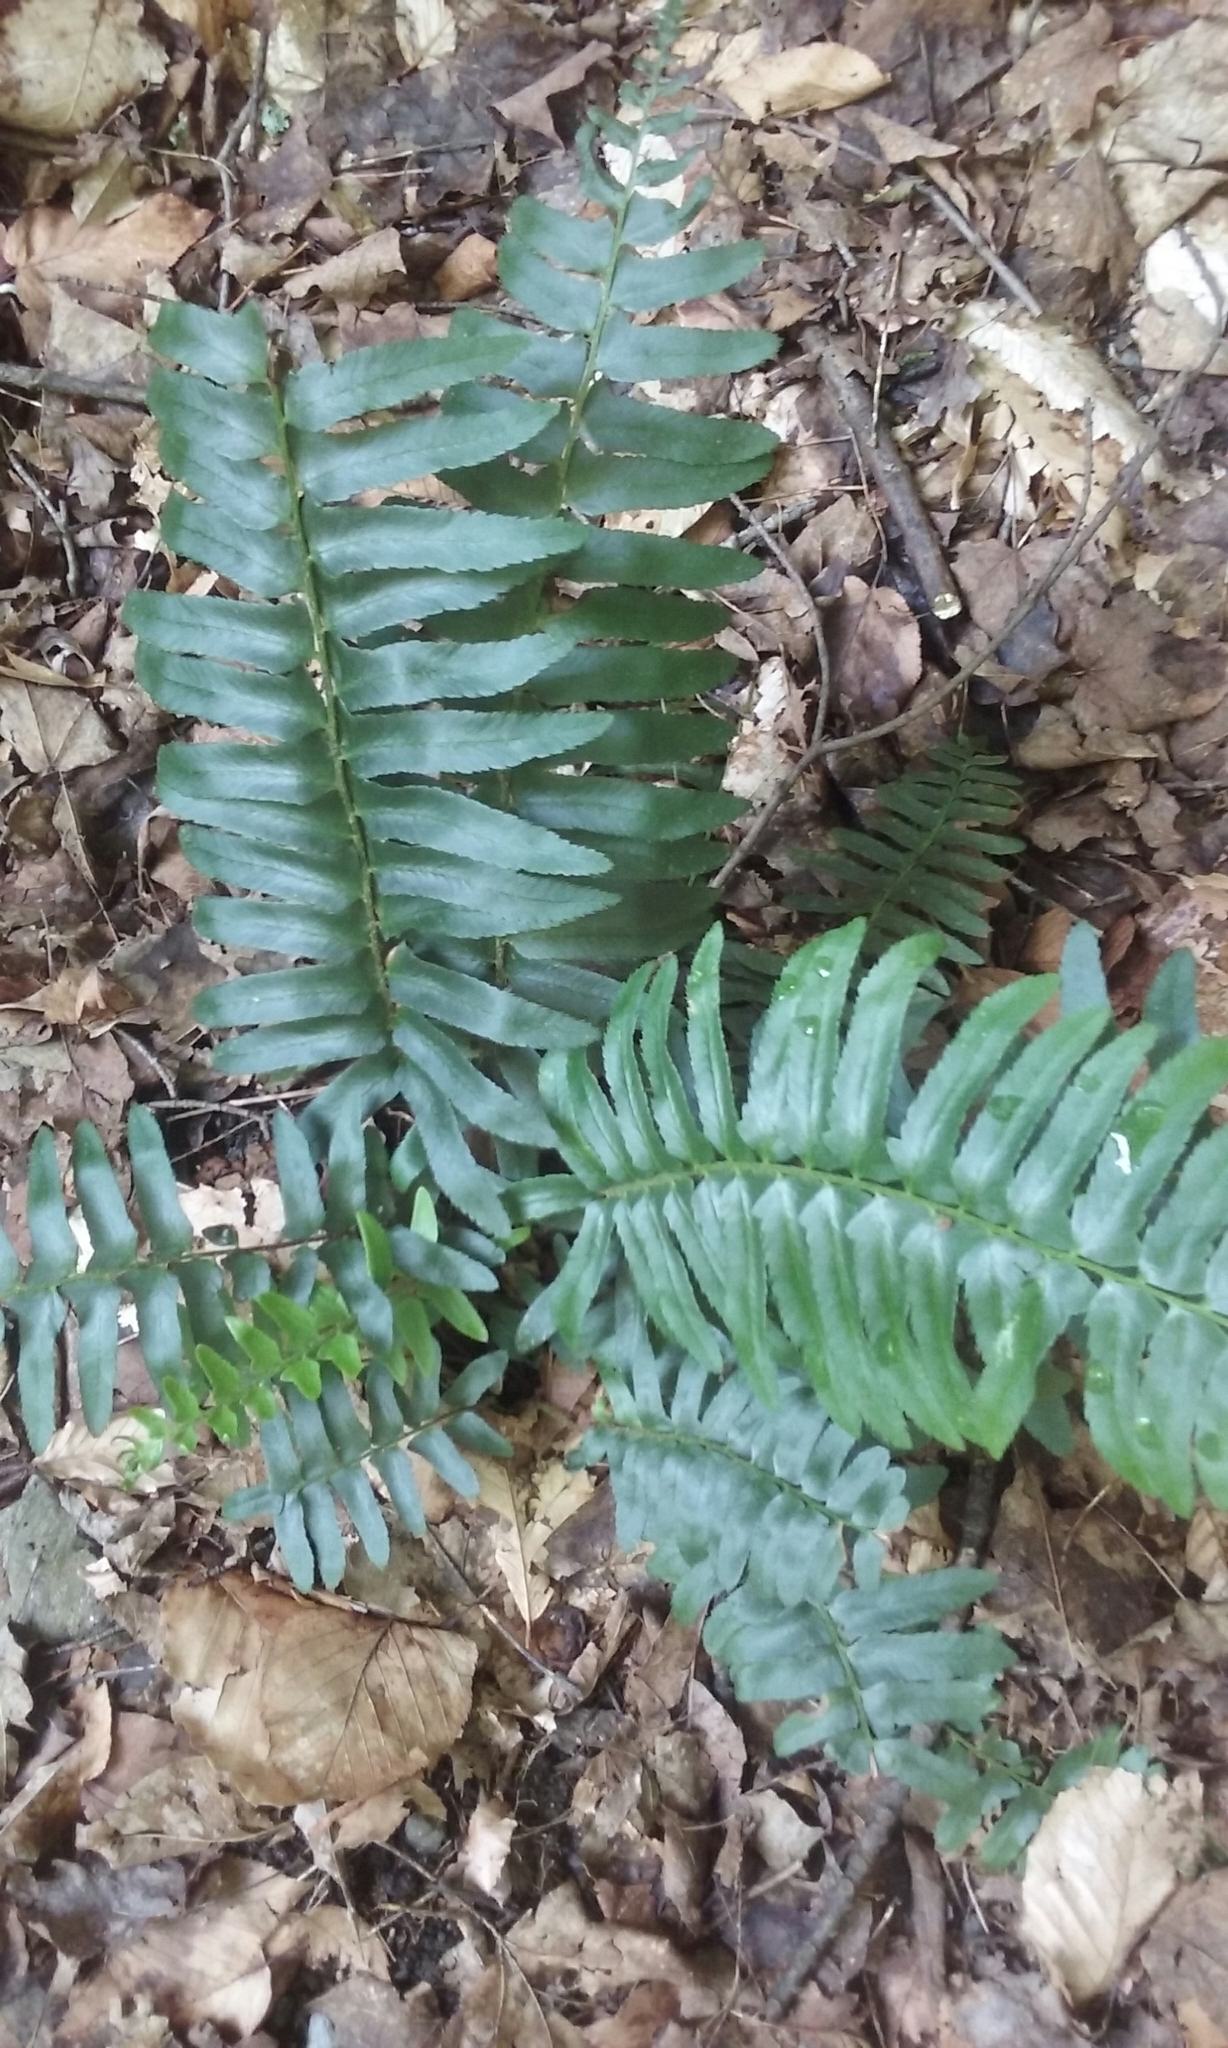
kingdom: Plantae
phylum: Tracheophyta
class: Polypodiopsida
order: Polypodiales
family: Dryopteridaceae
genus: Polystichum
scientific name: Polystichum acrostichoides
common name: Christmas fern
